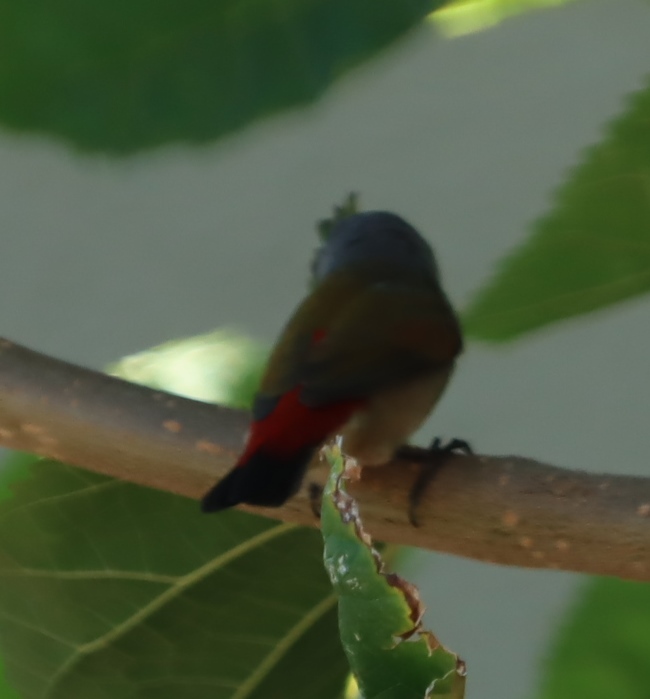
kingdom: Animalia
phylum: Chordata
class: Aves
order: Passeriformes
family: Estrildidae
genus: Coccopygia
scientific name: Coccopygia melanotis
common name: Swee waxbill
